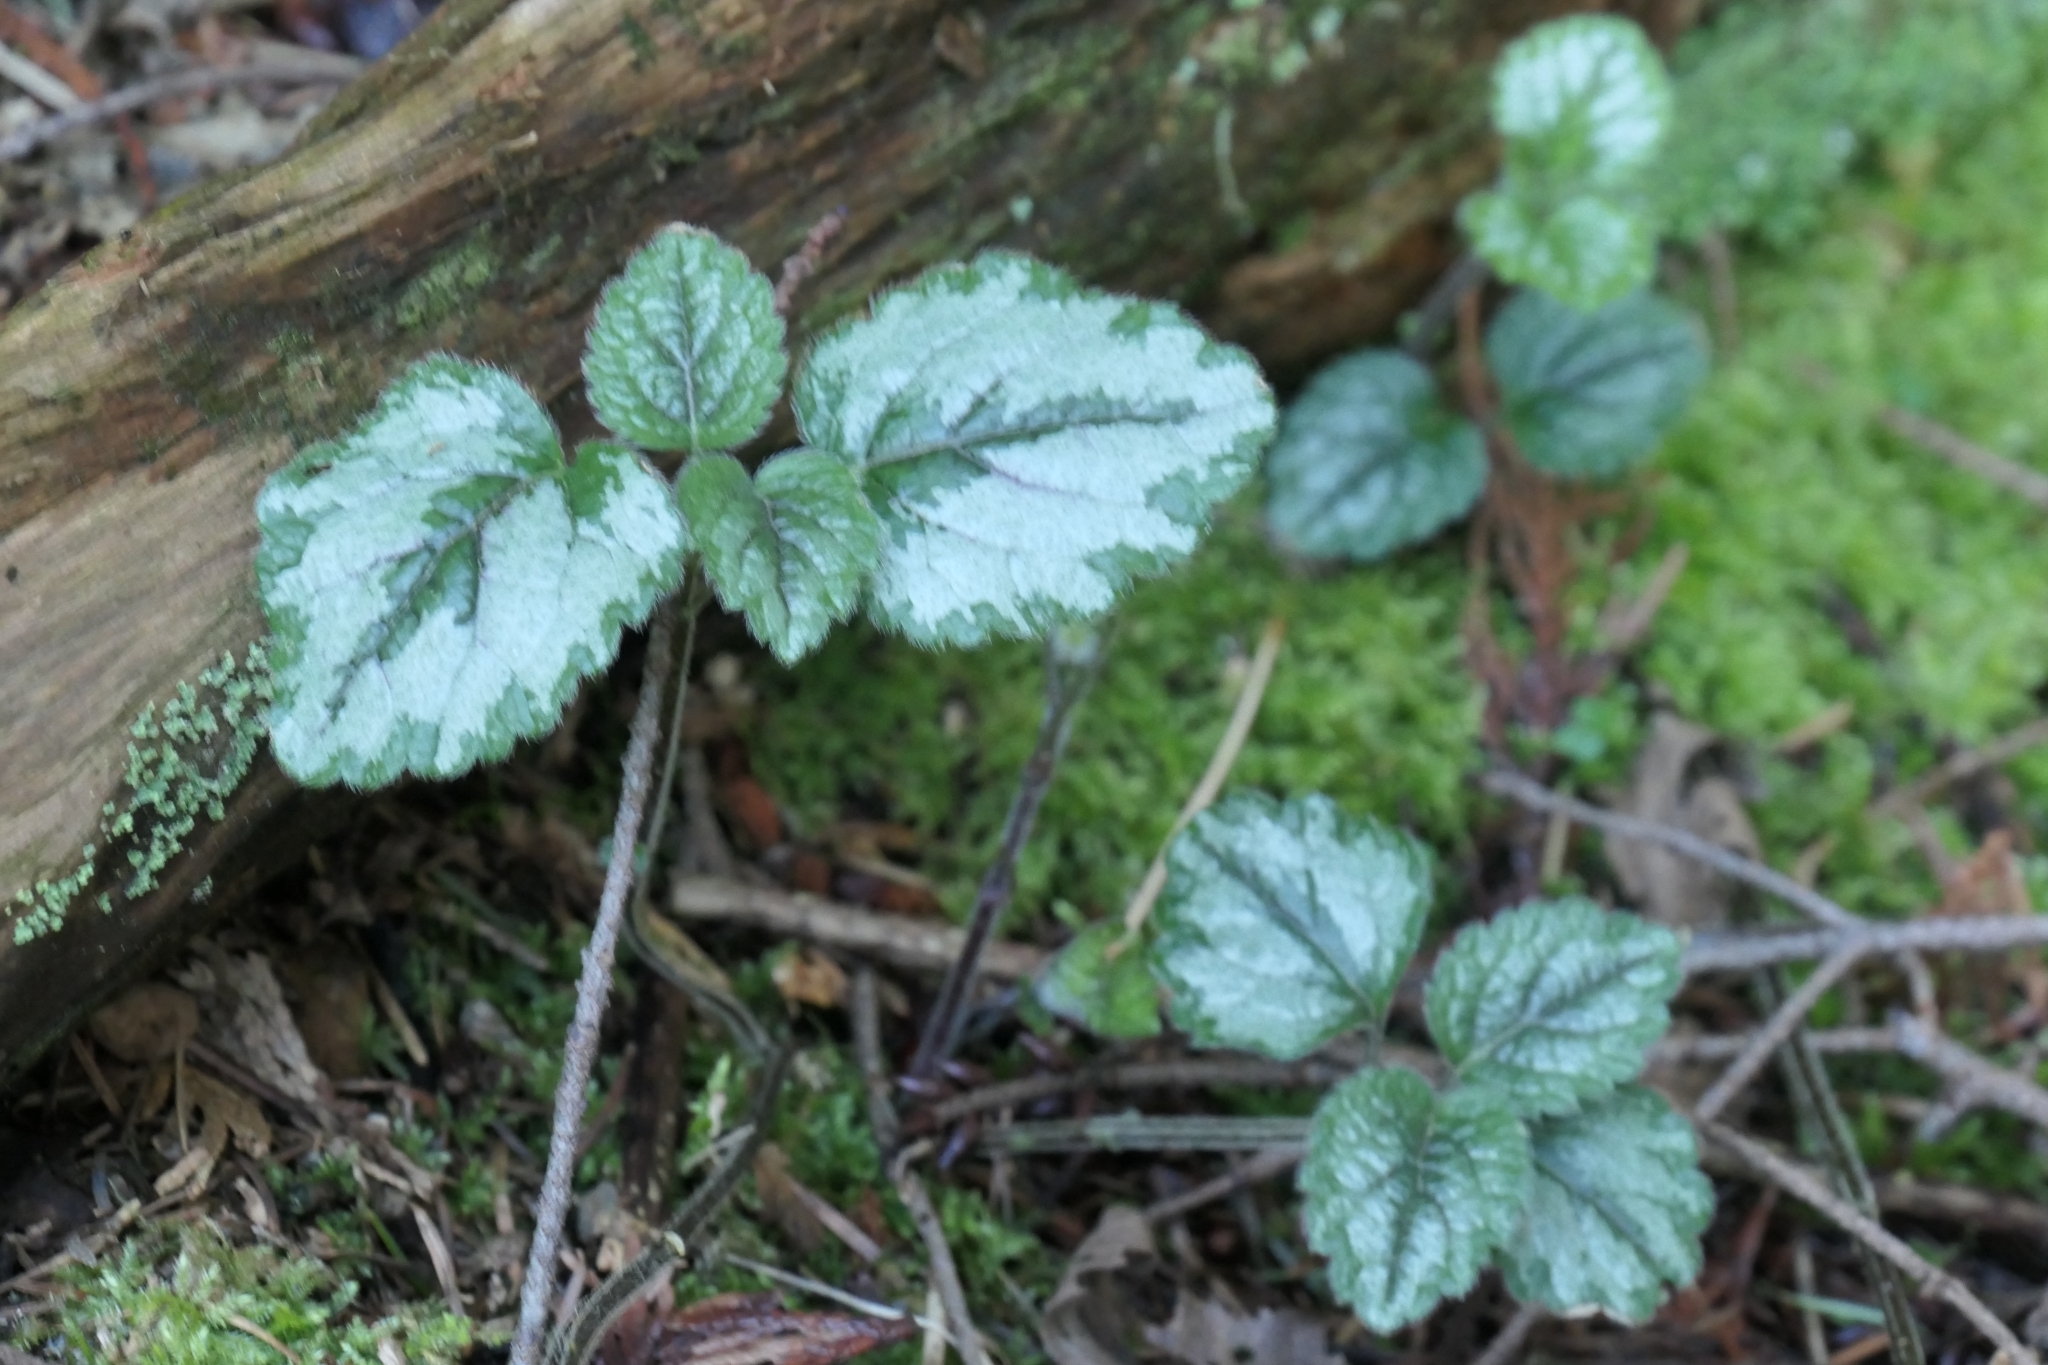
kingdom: Plantae
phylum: Tracheophyta
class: Magnoliopsida
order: Lamiales
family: Lamiaceae
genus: Lamium
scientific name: Lamium galeobdolon
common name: Yellow archangel
